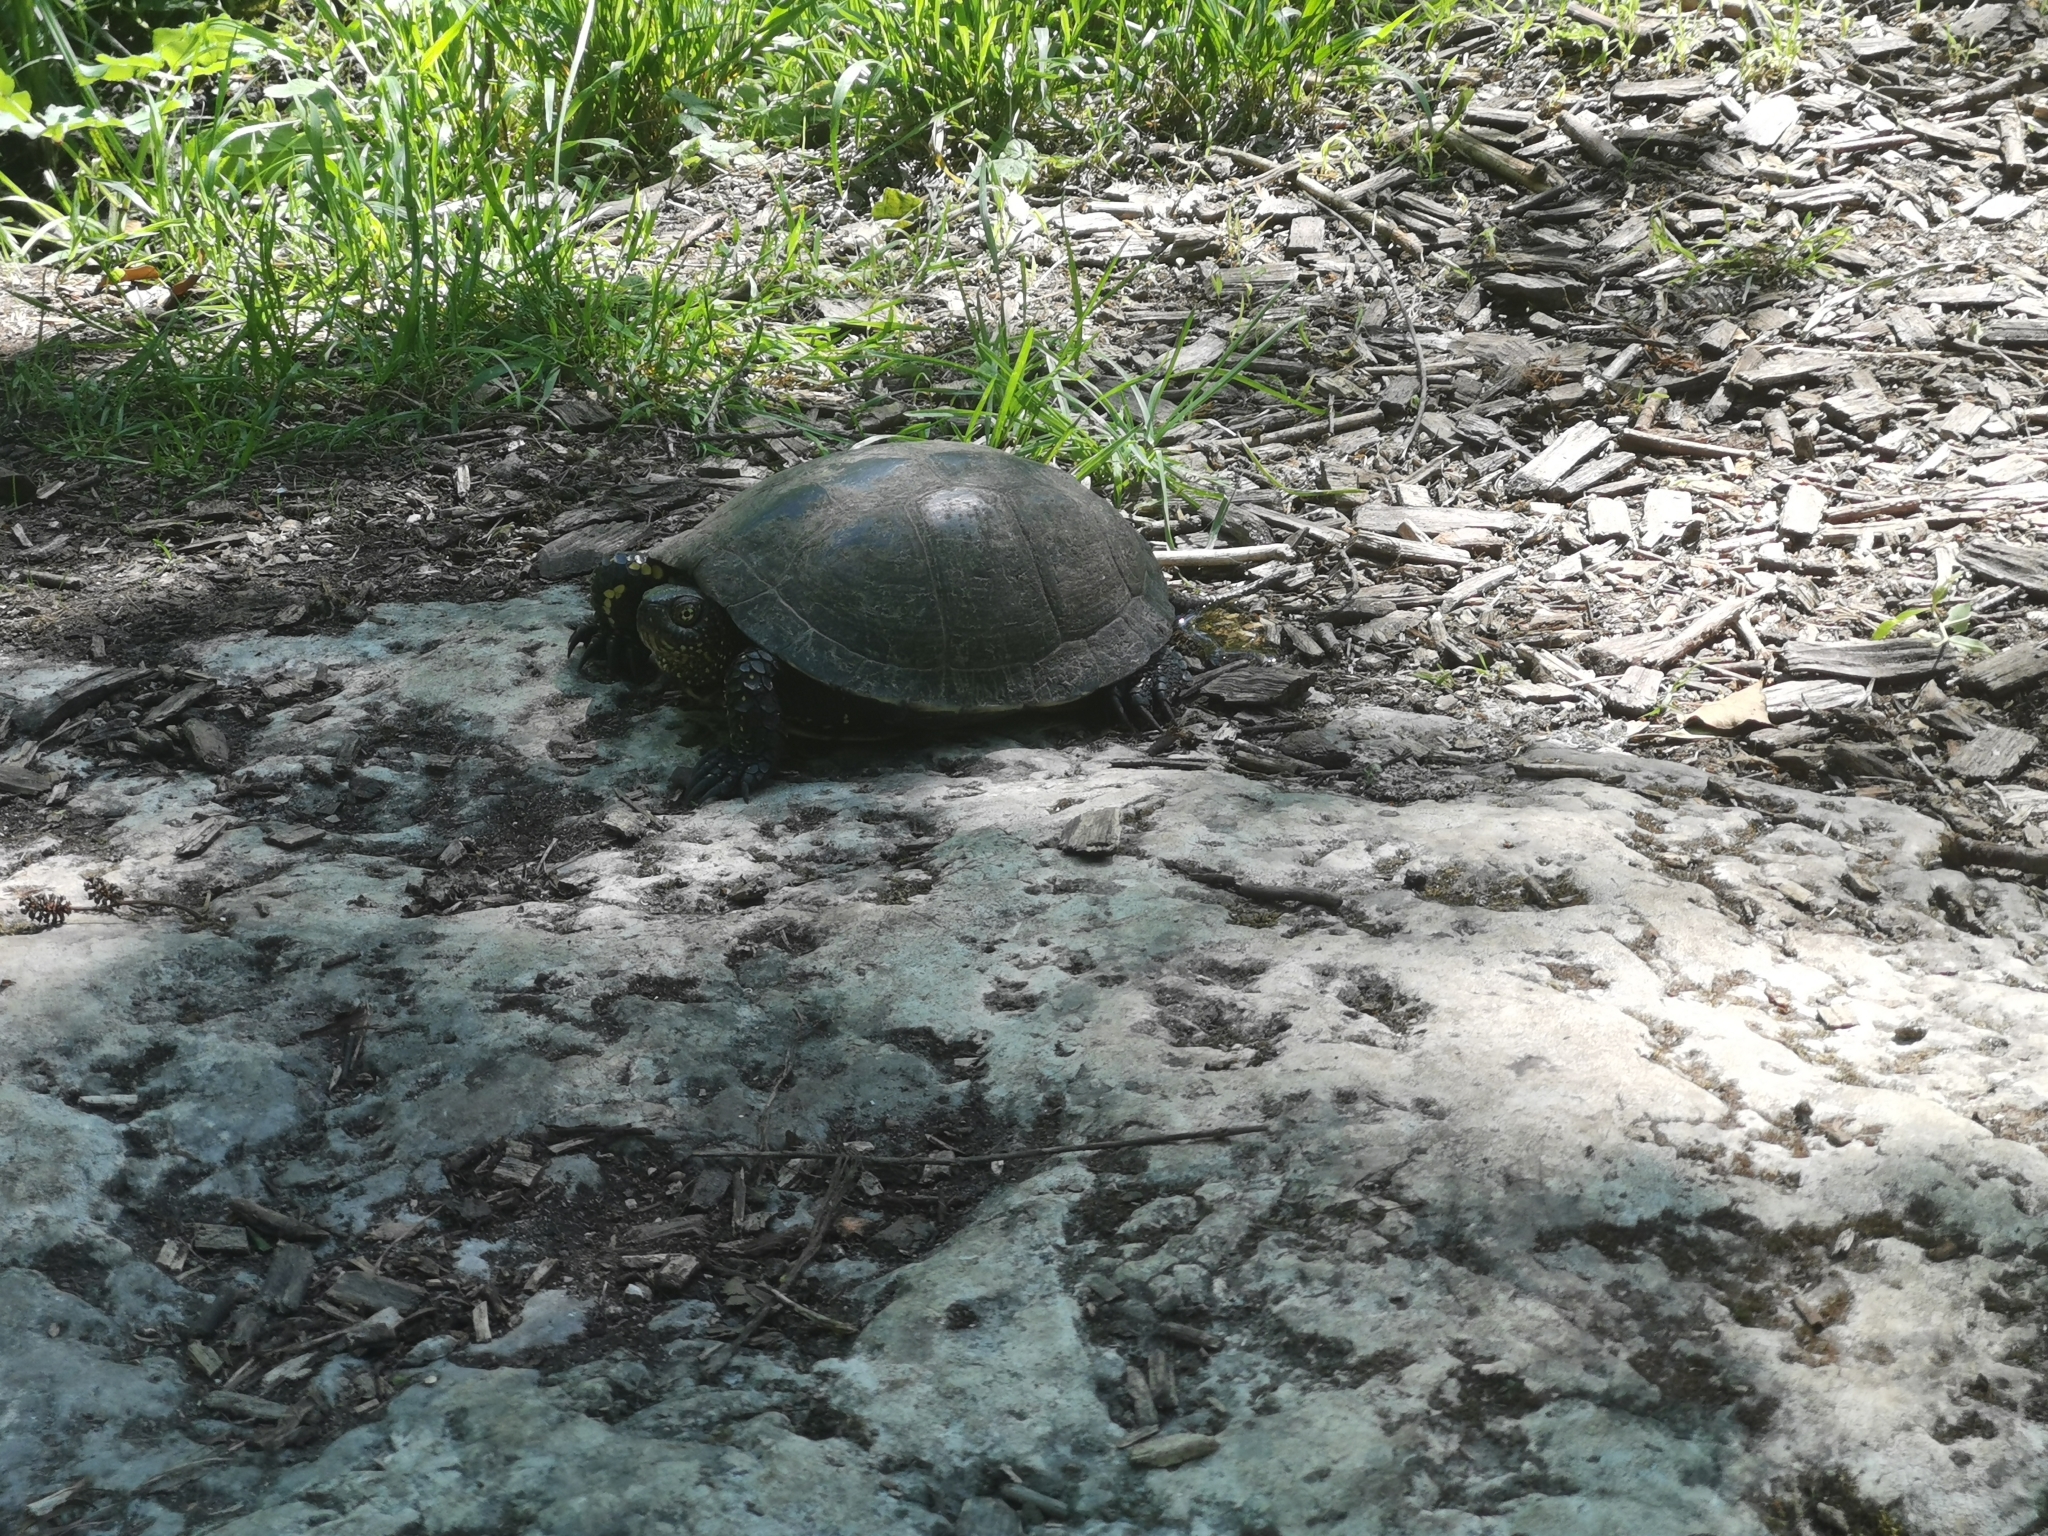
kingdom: Animalia
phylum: Chordata
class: Testudines
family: Emydidae
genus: Emys
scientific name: Emys orbicularis
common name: European pond turtle
